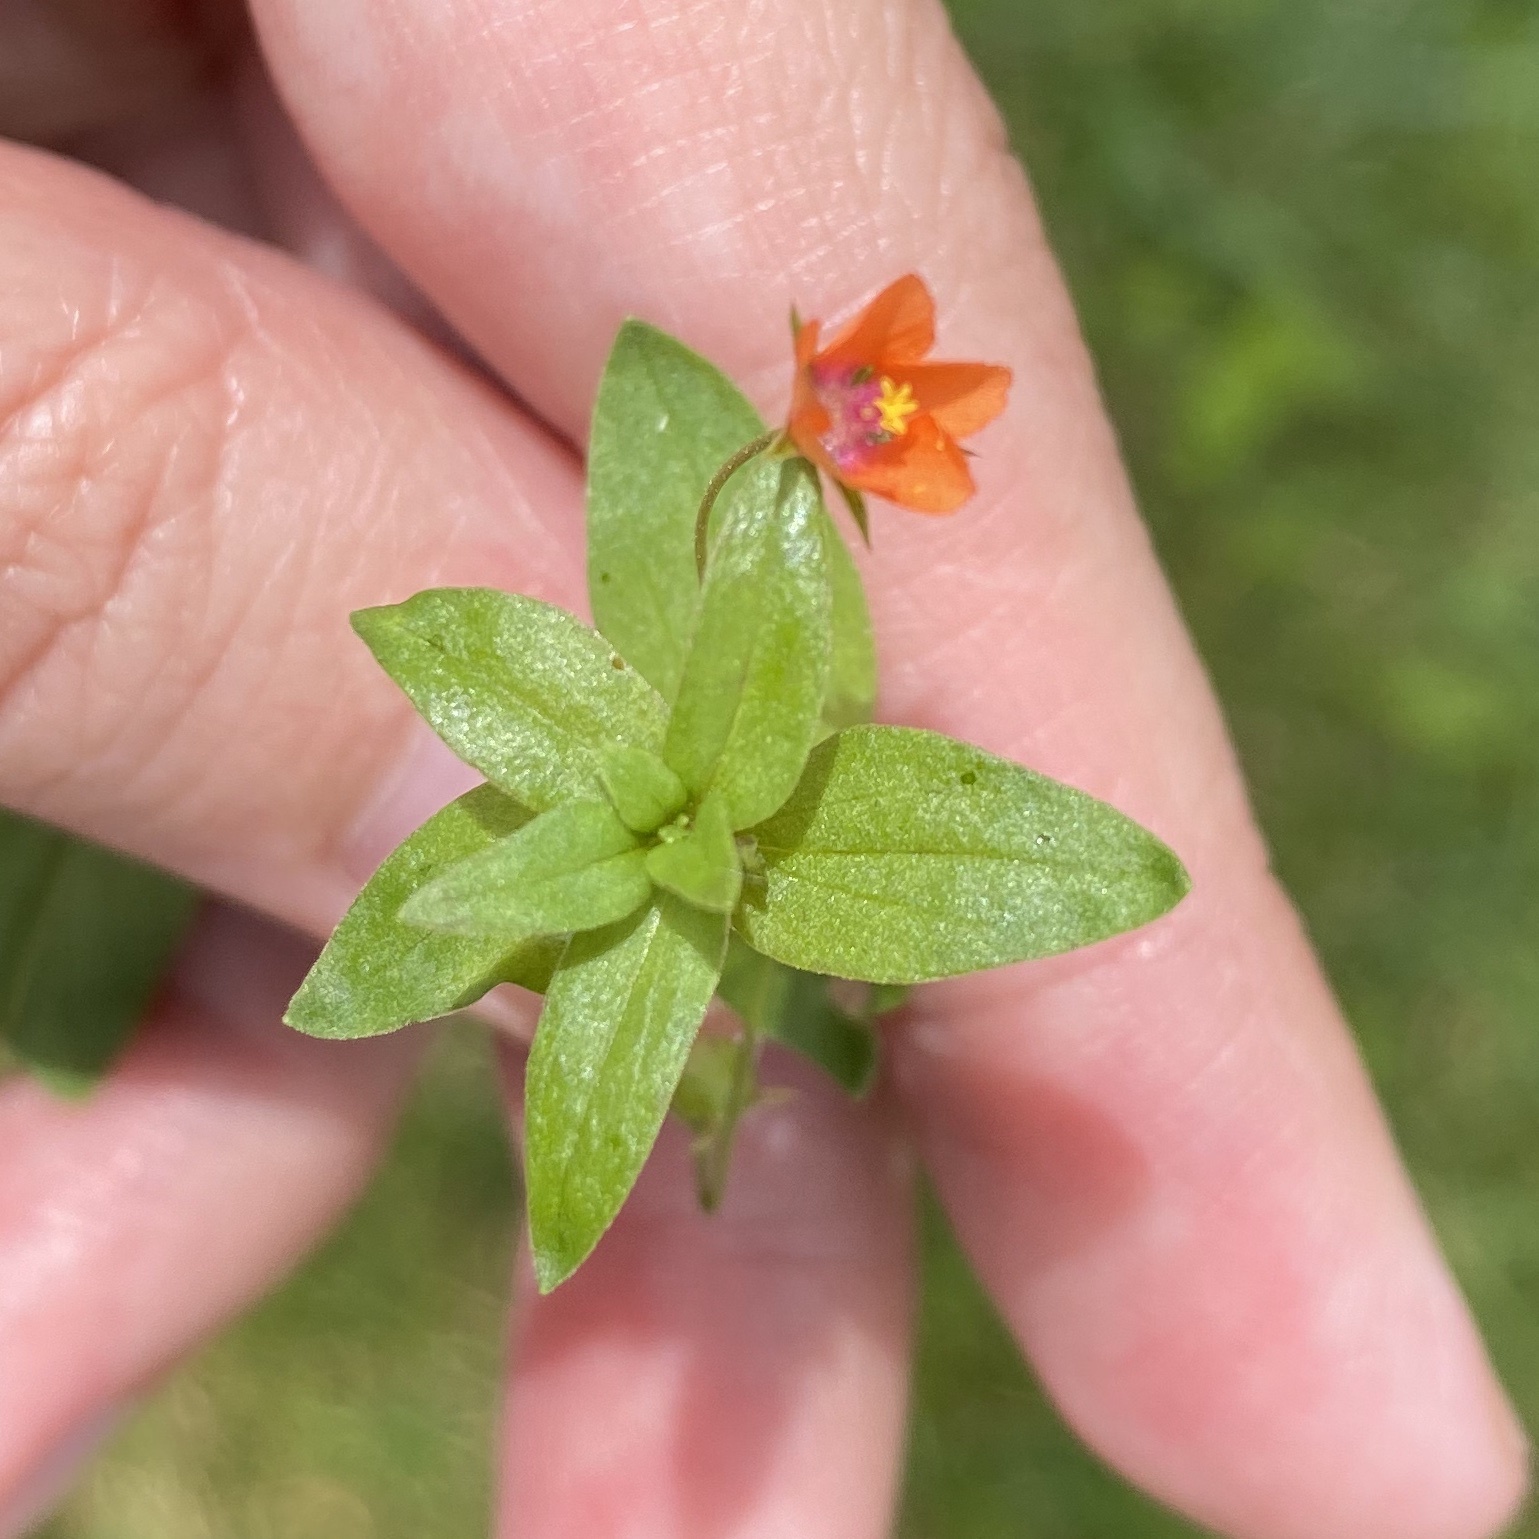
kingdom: Plantae
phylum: Tracheophyta
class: Magnoliopsida
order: Ericales
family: Primulaceae
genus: Lysimachia
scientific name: Lysimachia arvensis
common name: Scarlet pimpernel
